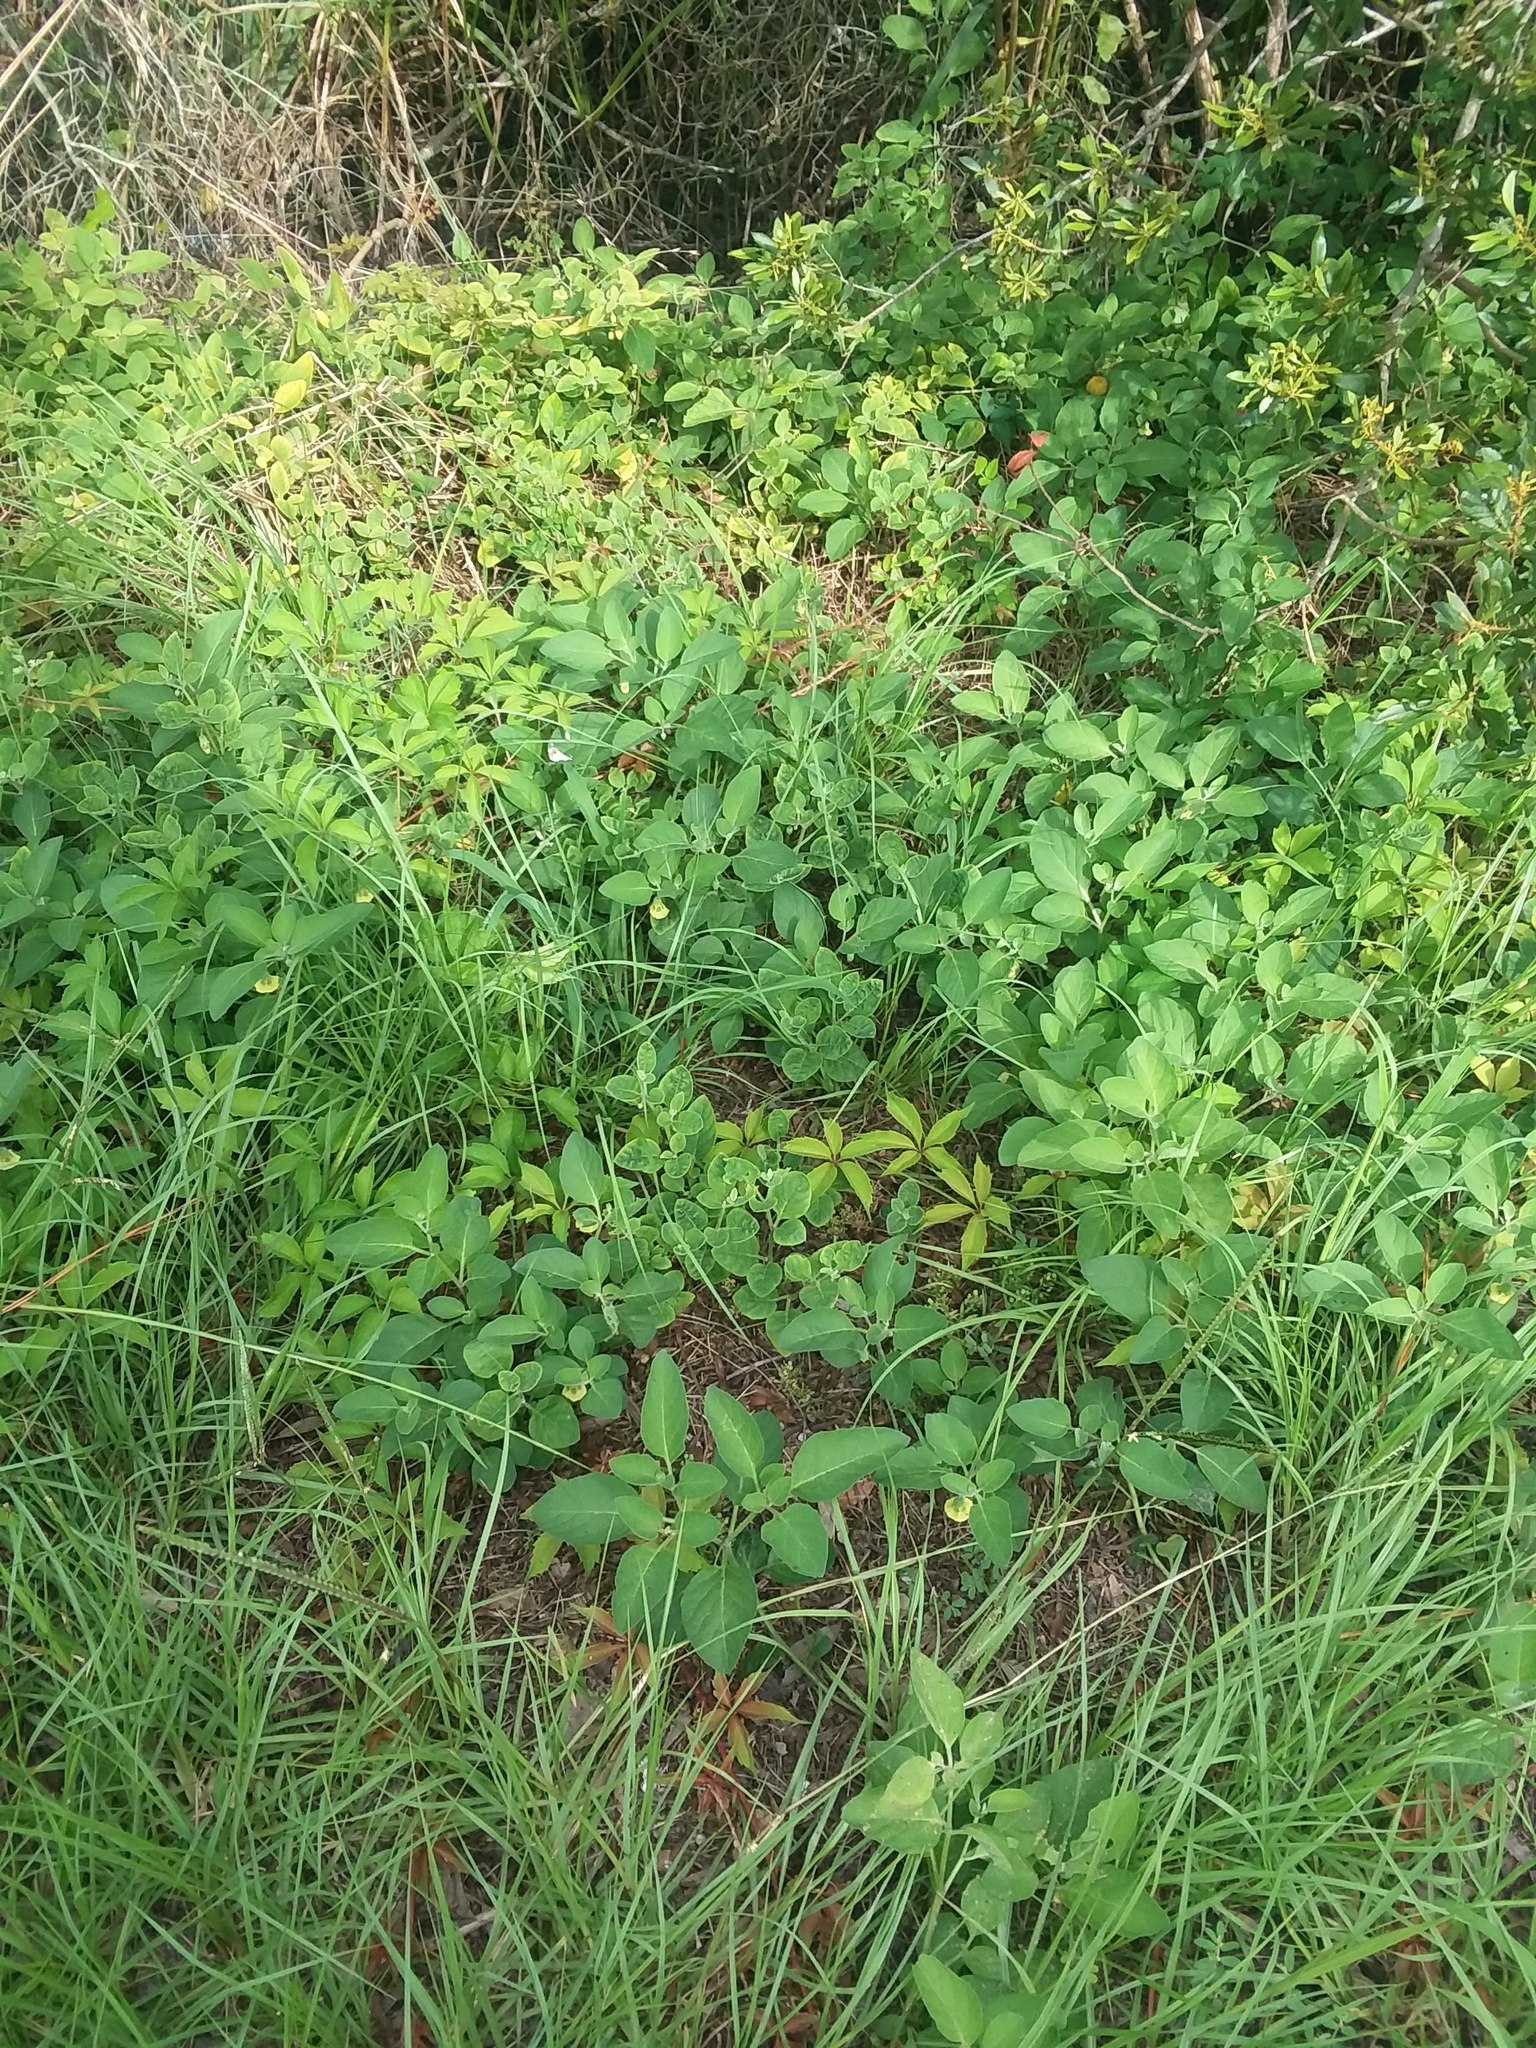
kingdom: Plantae
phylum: Tracheophyta
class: Magnoliopsida
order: Solanales
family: Solanaceae
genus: Physalis
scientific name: Physalis walteri
